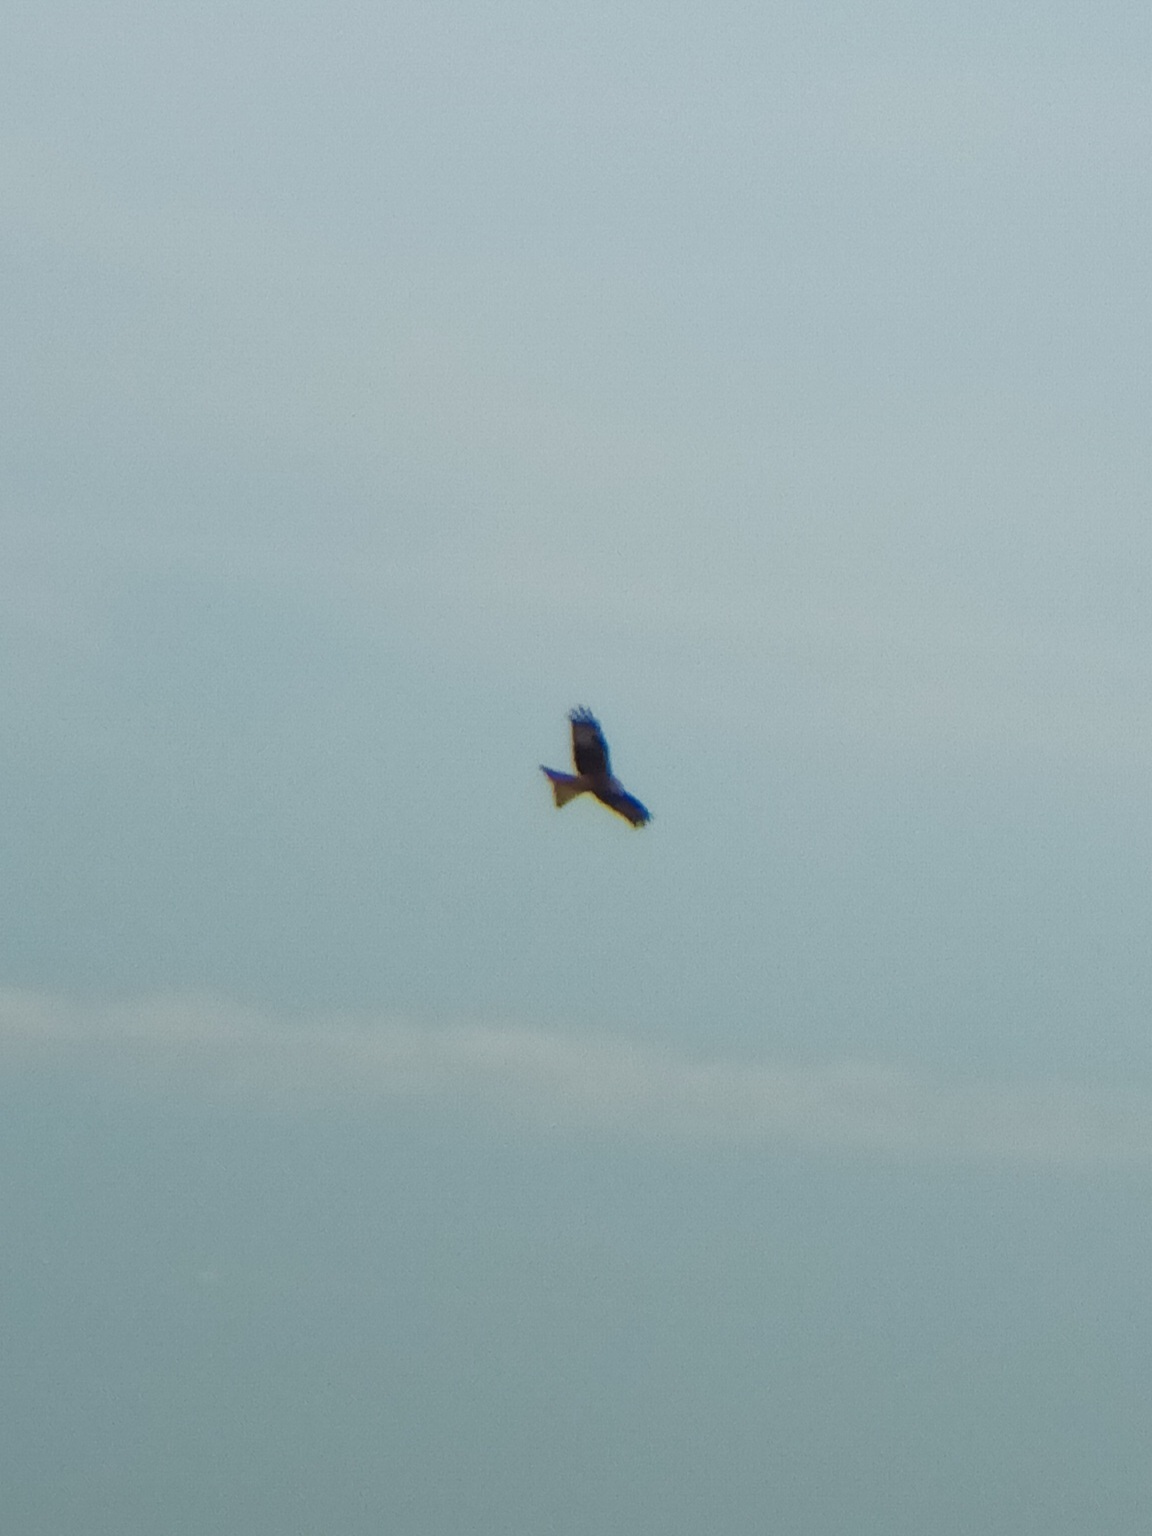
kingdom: Animalia
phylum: Chordata
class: Aves
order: Accipitriformes
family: Accipitridae
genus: Milvus
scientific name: Milvus milvus
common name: Red kite
